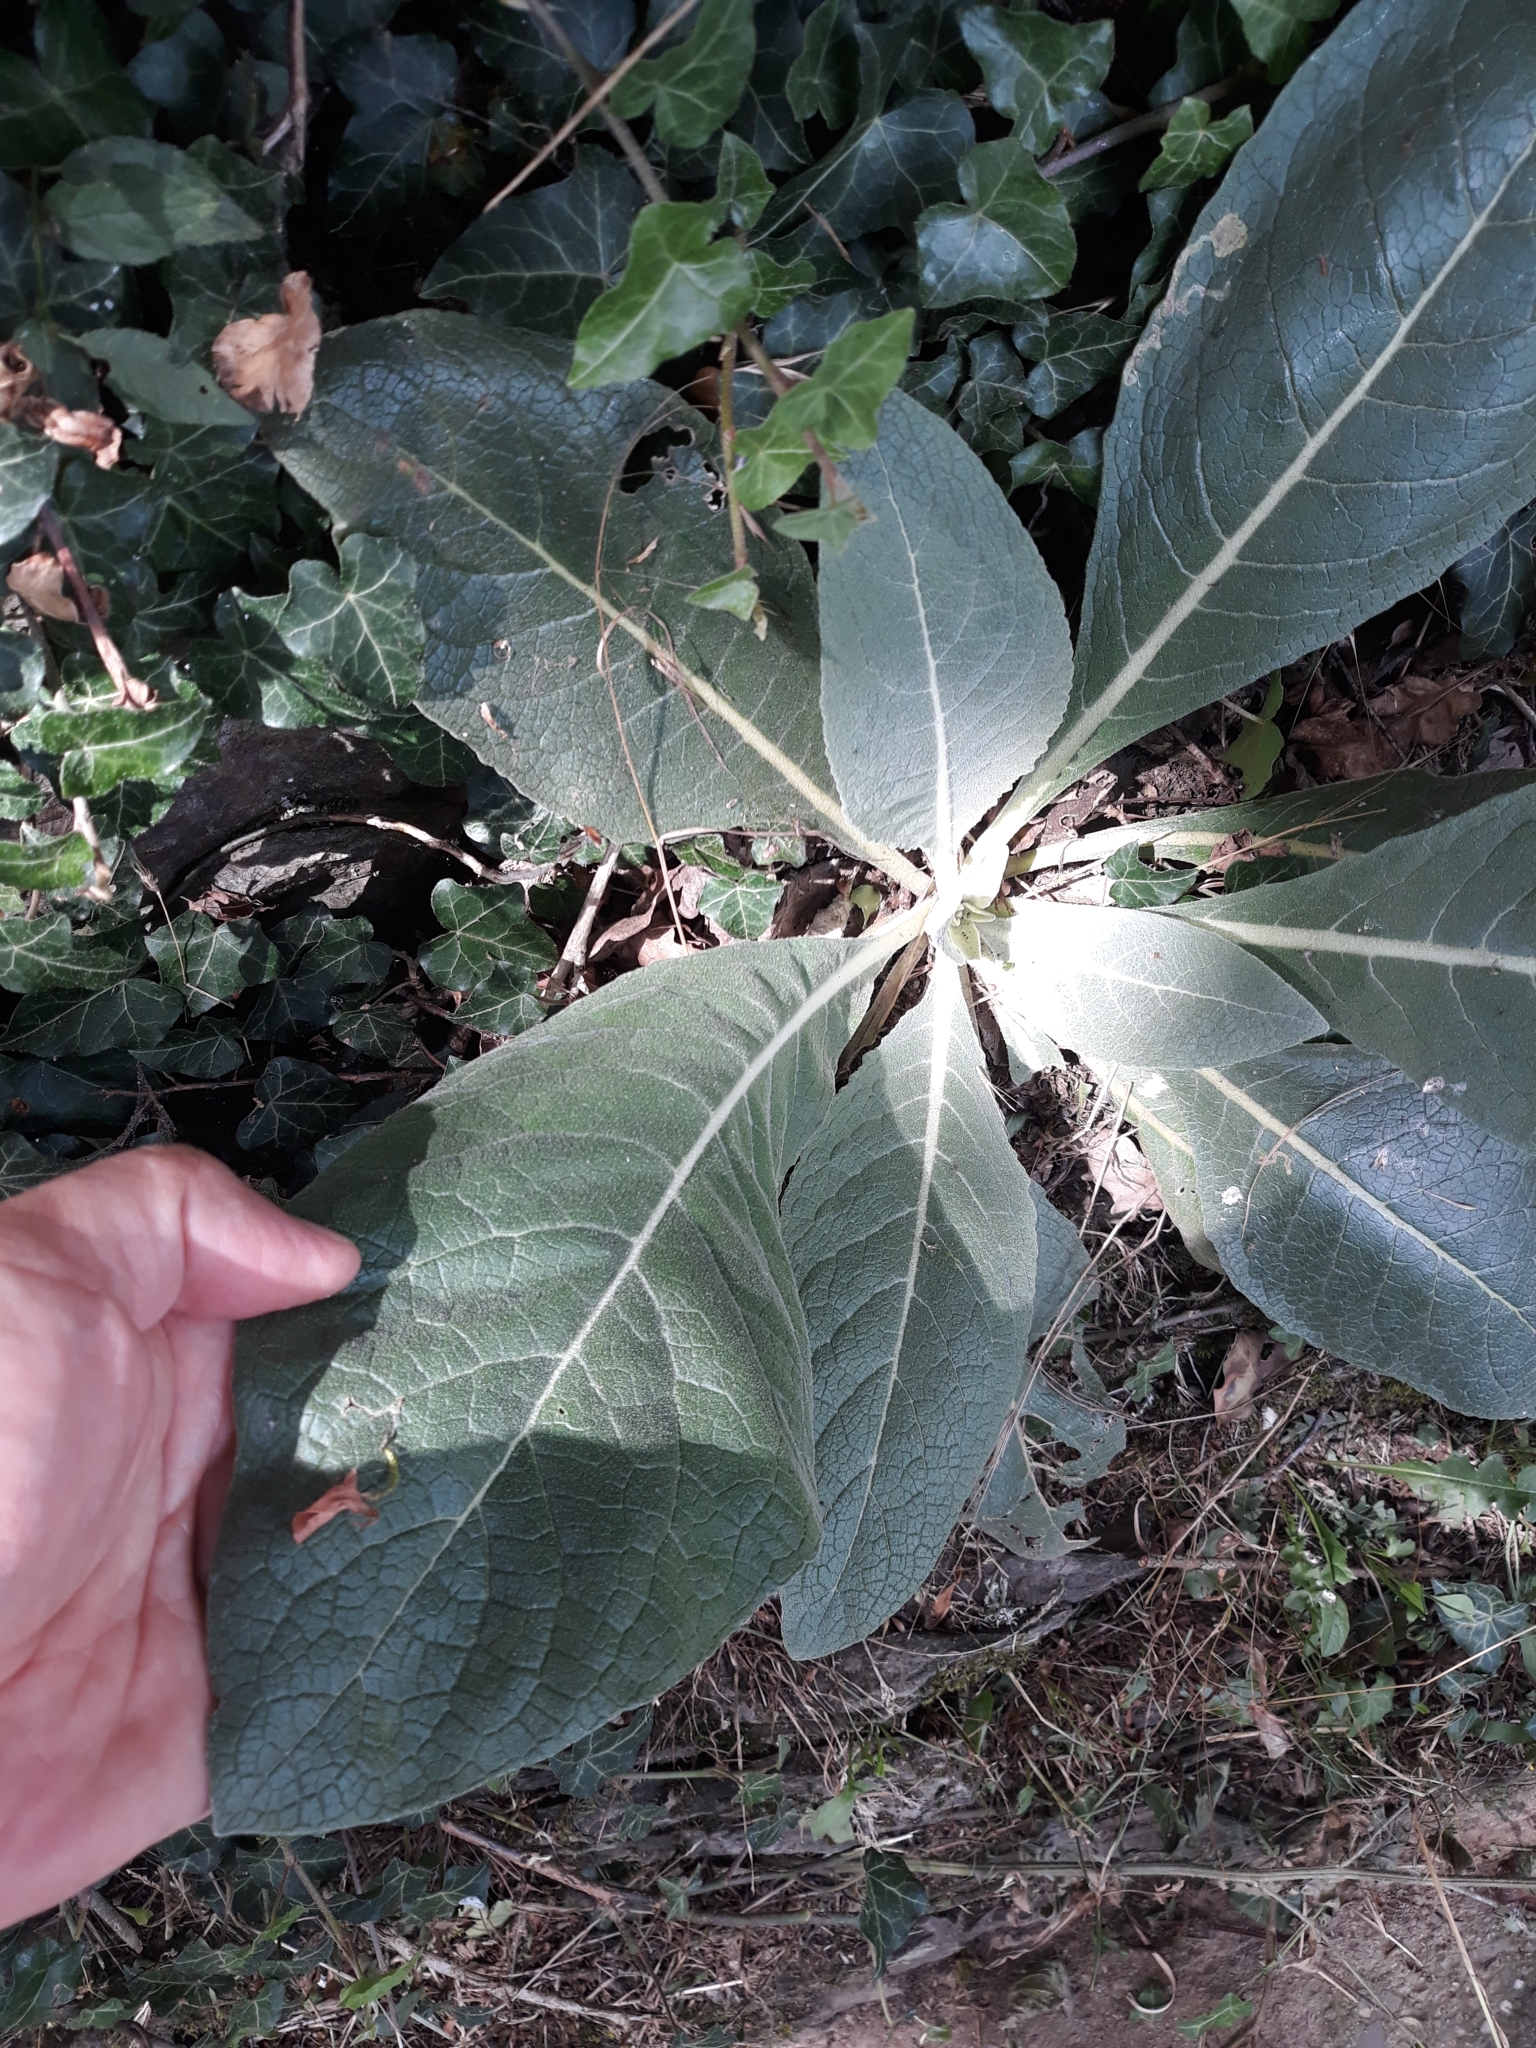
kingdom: Plantae
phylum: Tracheophyta
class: Magnoliopsida
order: Lamiales
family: Scrophulariaceae
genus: Verbascum
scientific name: Verbascum pulverulentum
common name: Broad-leaf mullein
